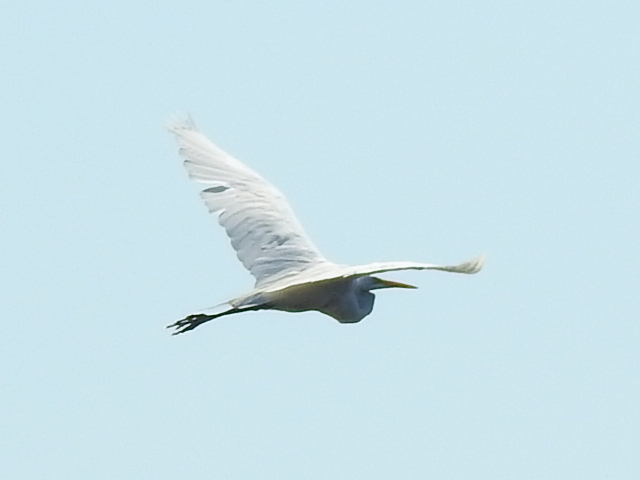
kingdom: Animalia
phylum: Chordata
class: Aves
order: Pelecaniformes
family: Ardeidae
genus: Ardea
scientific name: Ardea alba
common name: Great egret
